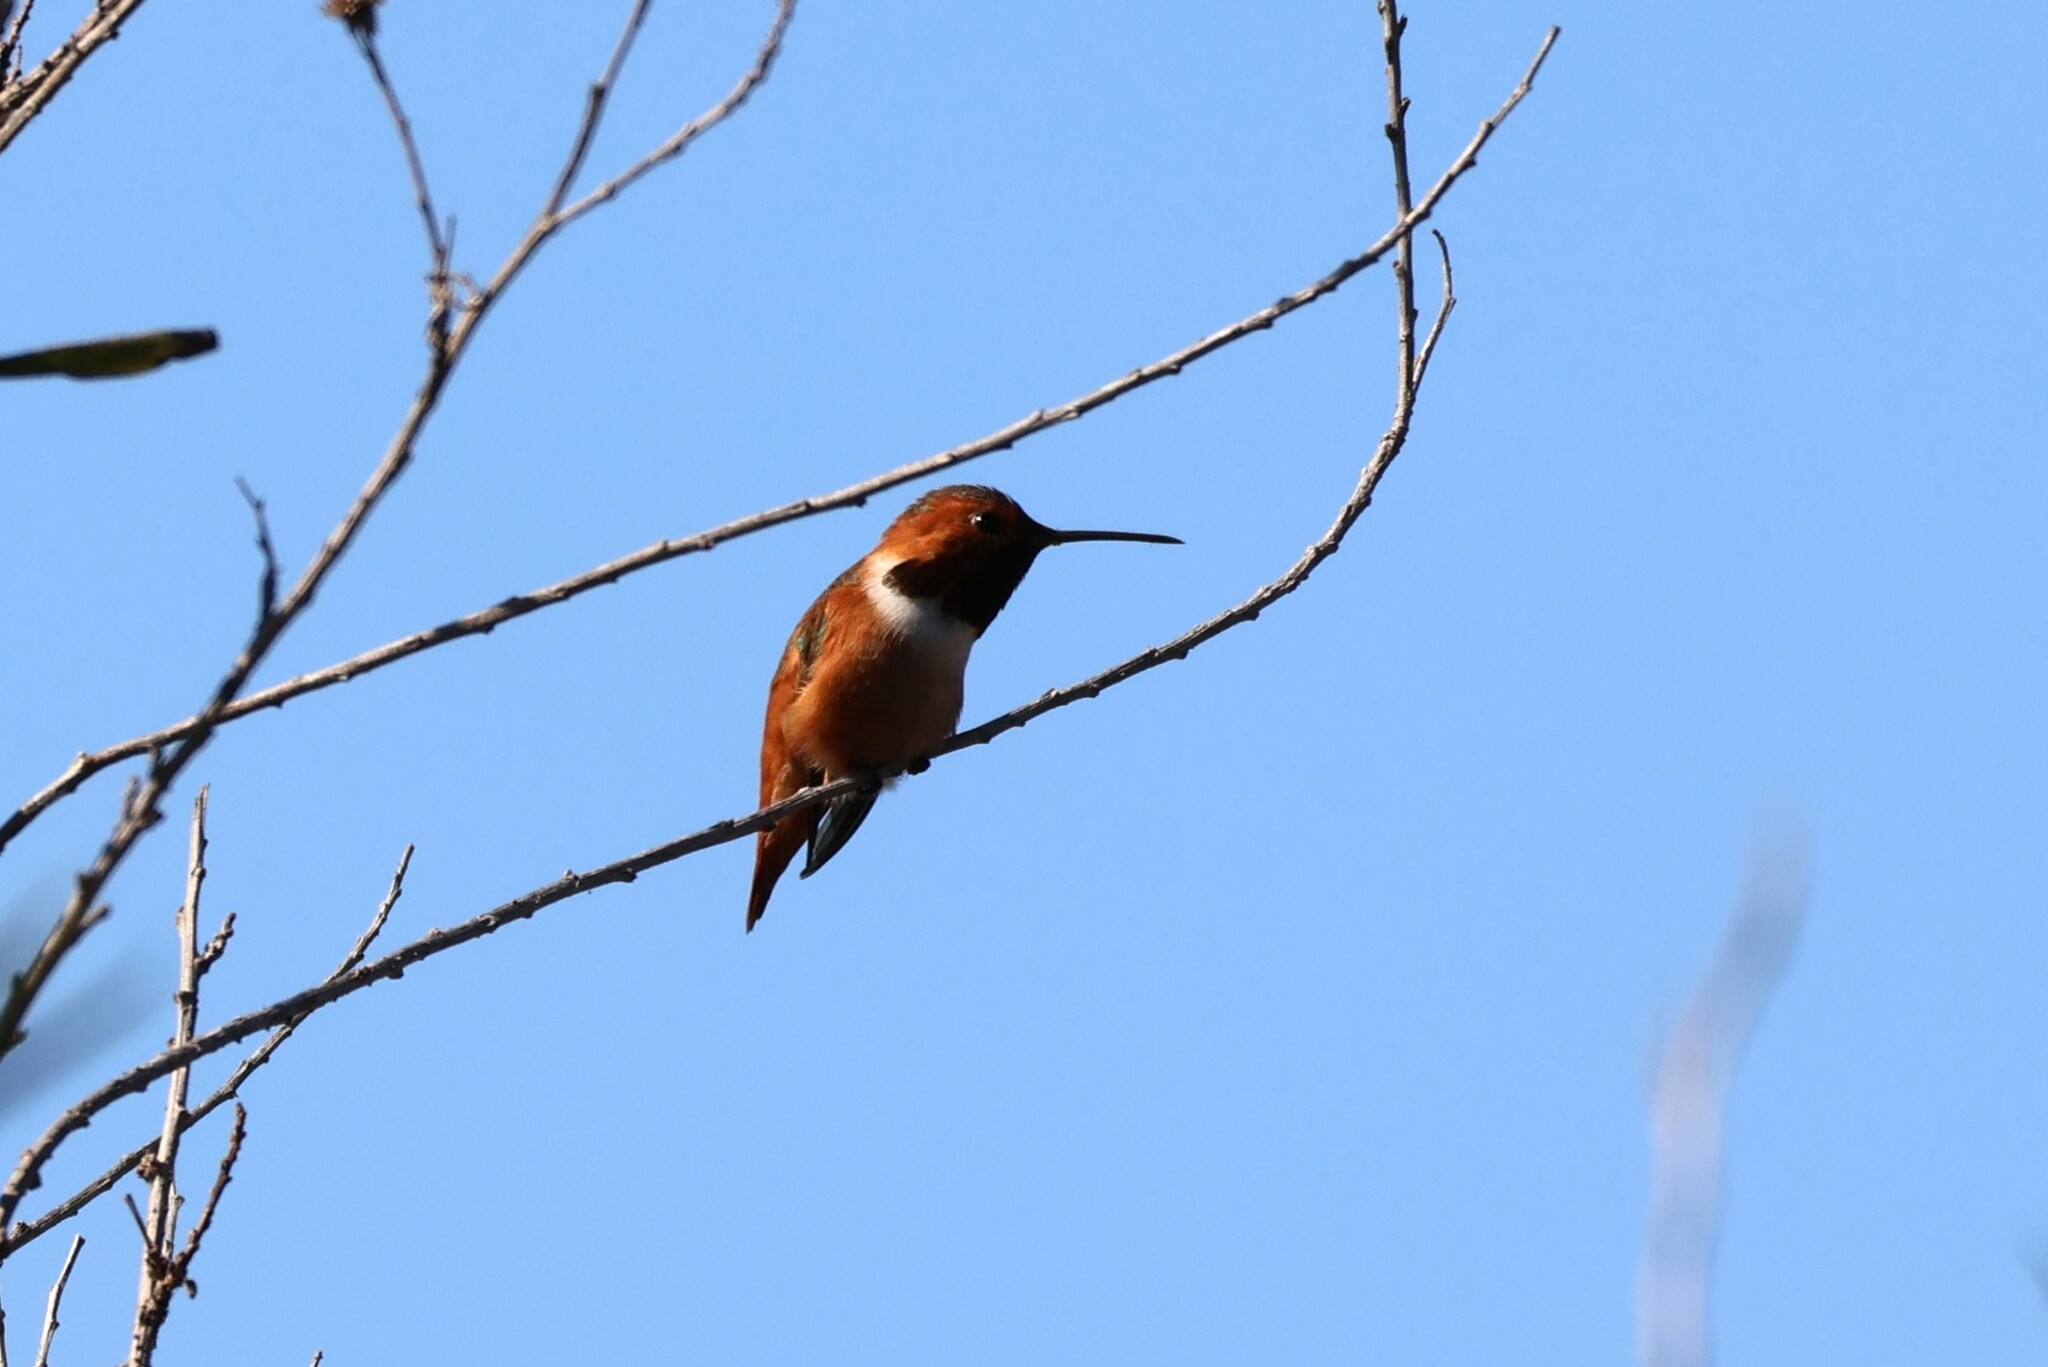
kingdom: Animalia
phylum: Chordata
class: Aves
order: Apodiformes
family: Trochilidae
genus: Selasphorus
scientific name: Selasphorus sasin
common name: Allen's hummingbird
